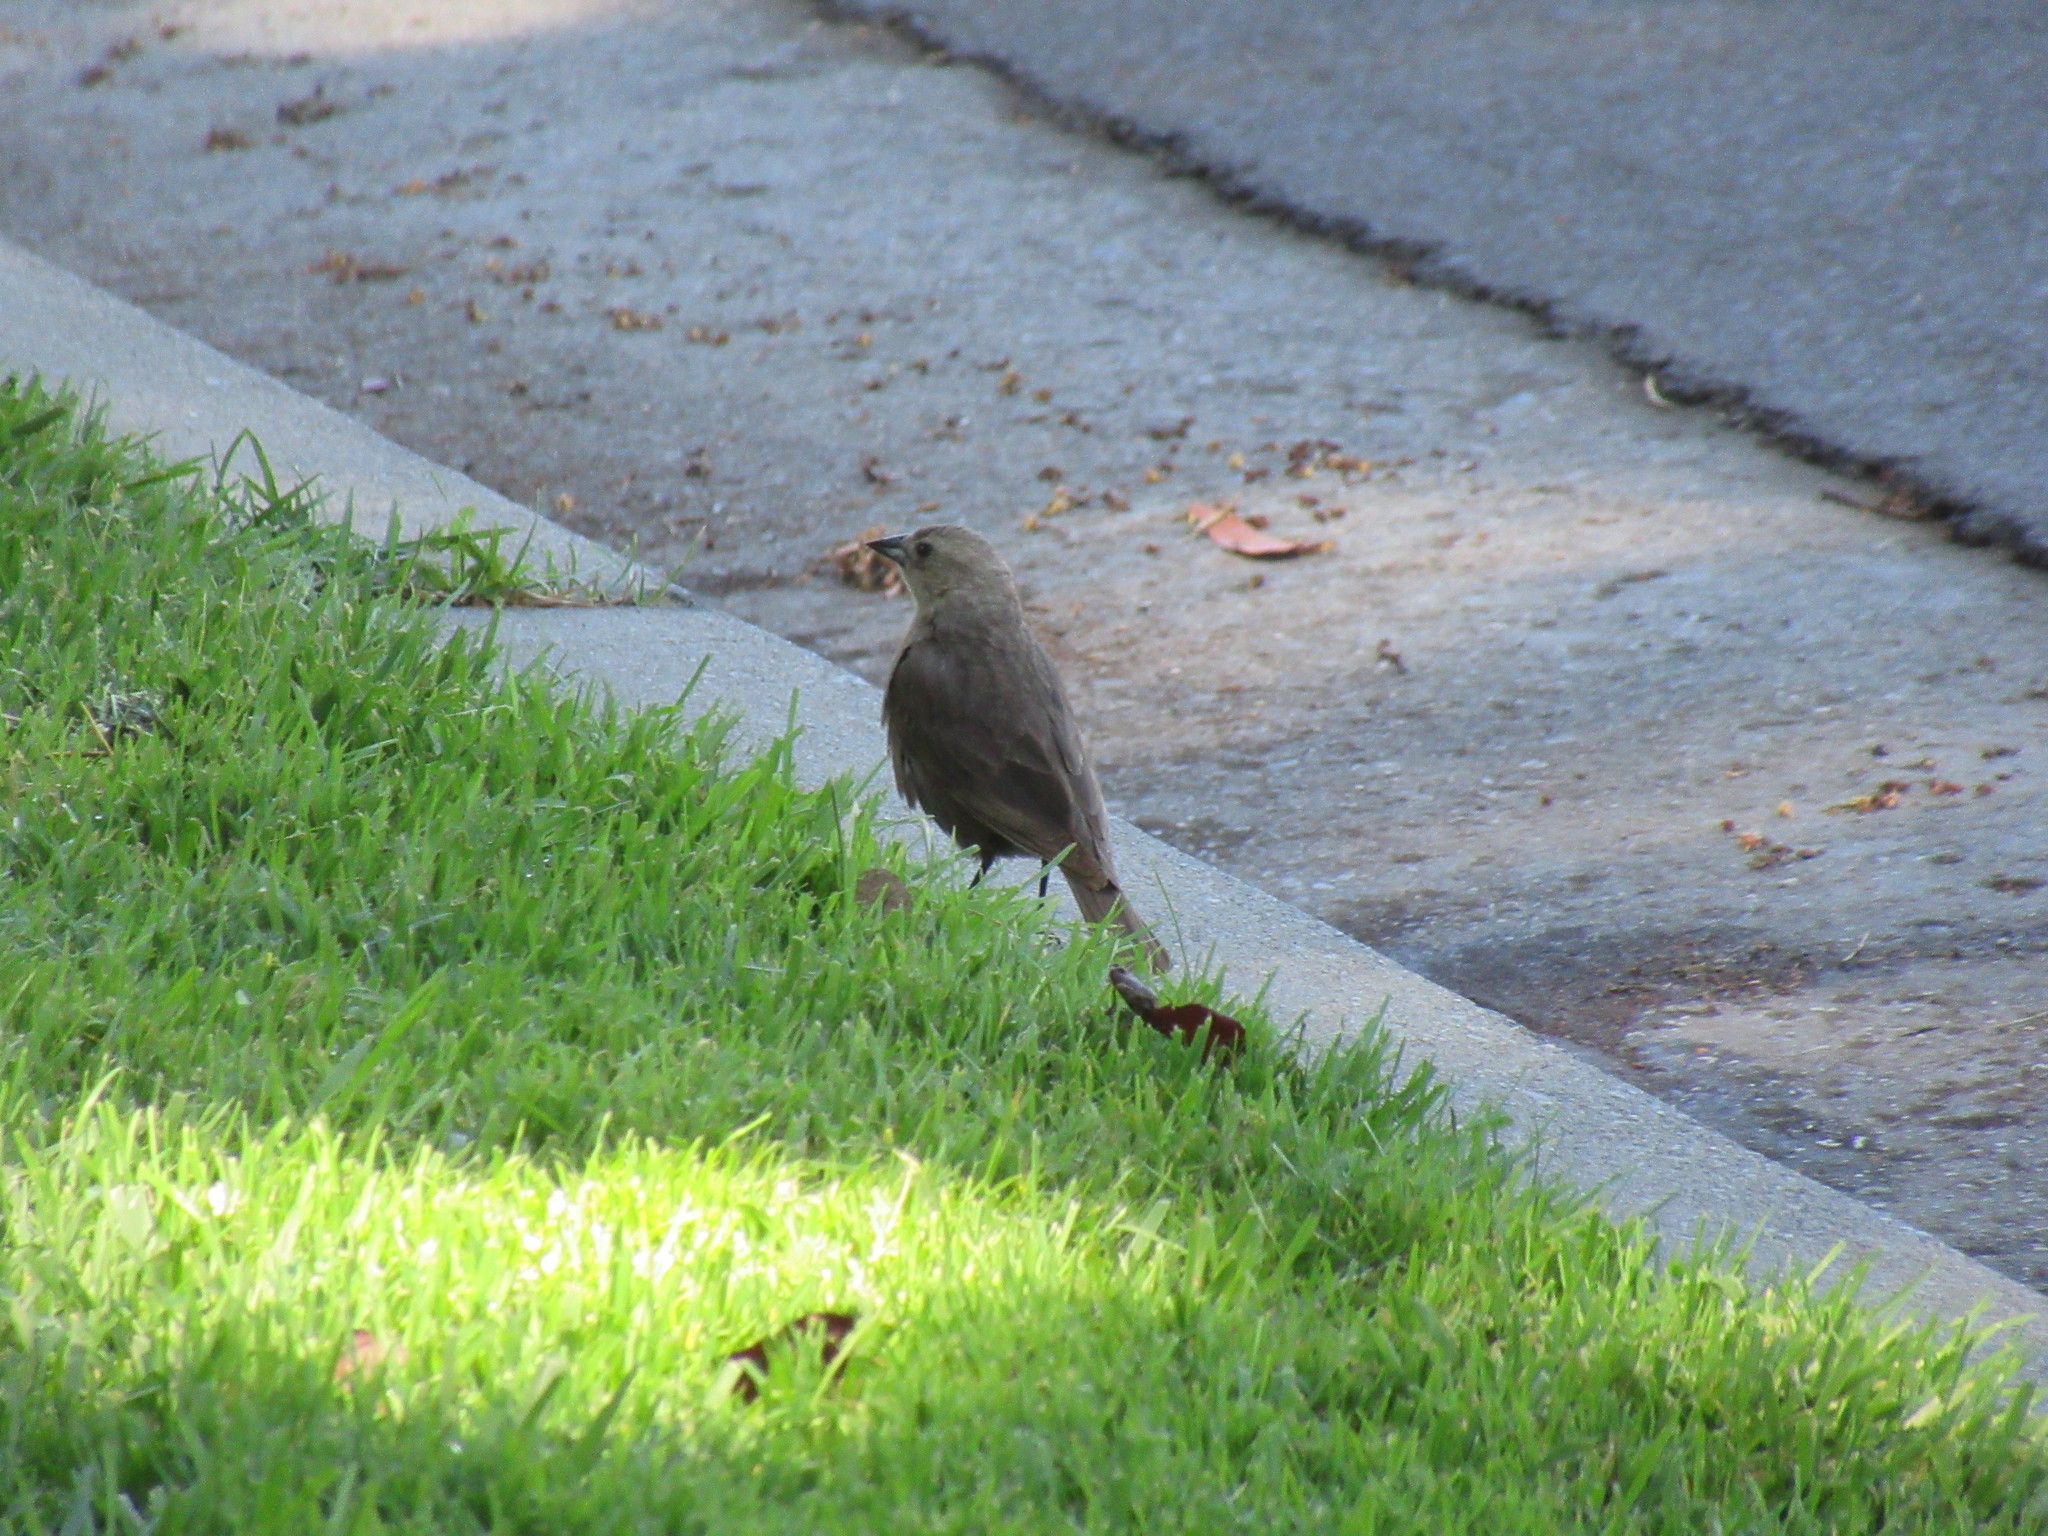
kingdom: Animalia
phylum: Chordata
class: Aves
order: Passeriformes
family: Icteridae
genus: Molothrus
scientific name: Molothrus ater
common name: Brown-headed cowbird
